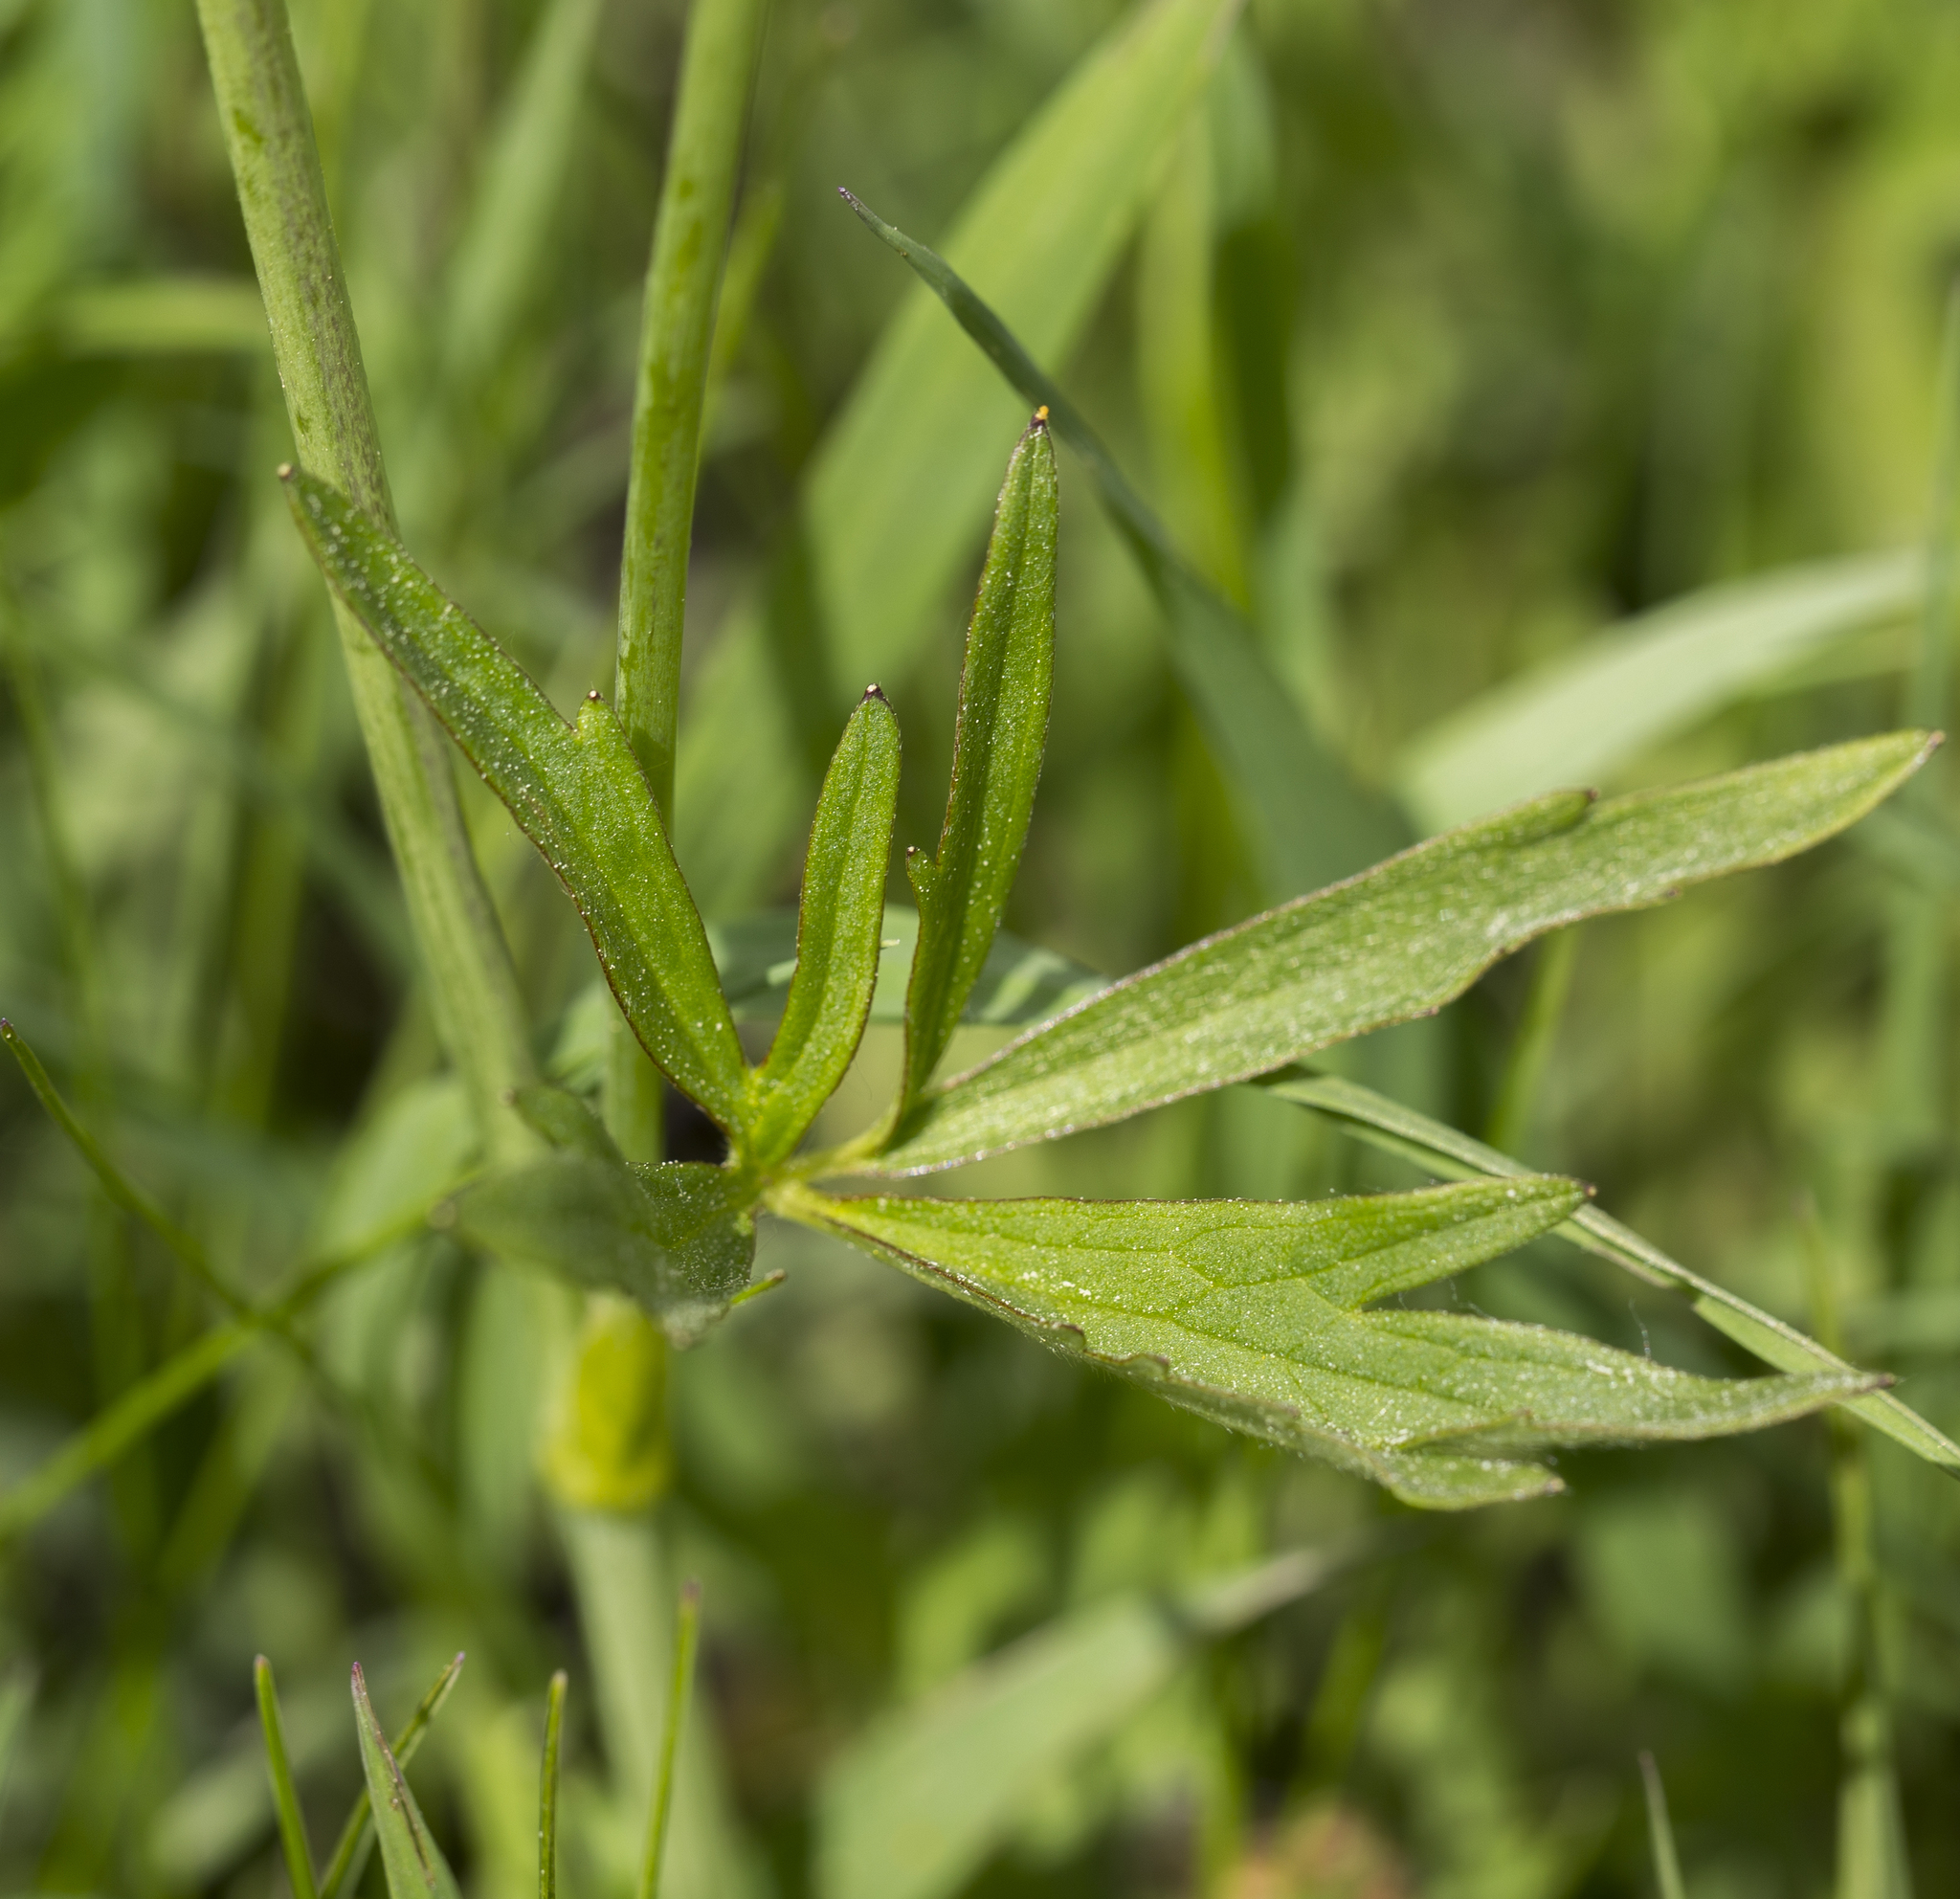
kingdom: Plantae
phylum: Tracheophyta
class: Magnoliopsida
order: Ranunculales
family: Ranunculaceae
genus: Ranunculus
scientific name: Ranunculus acris
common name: Meadow buttercup
